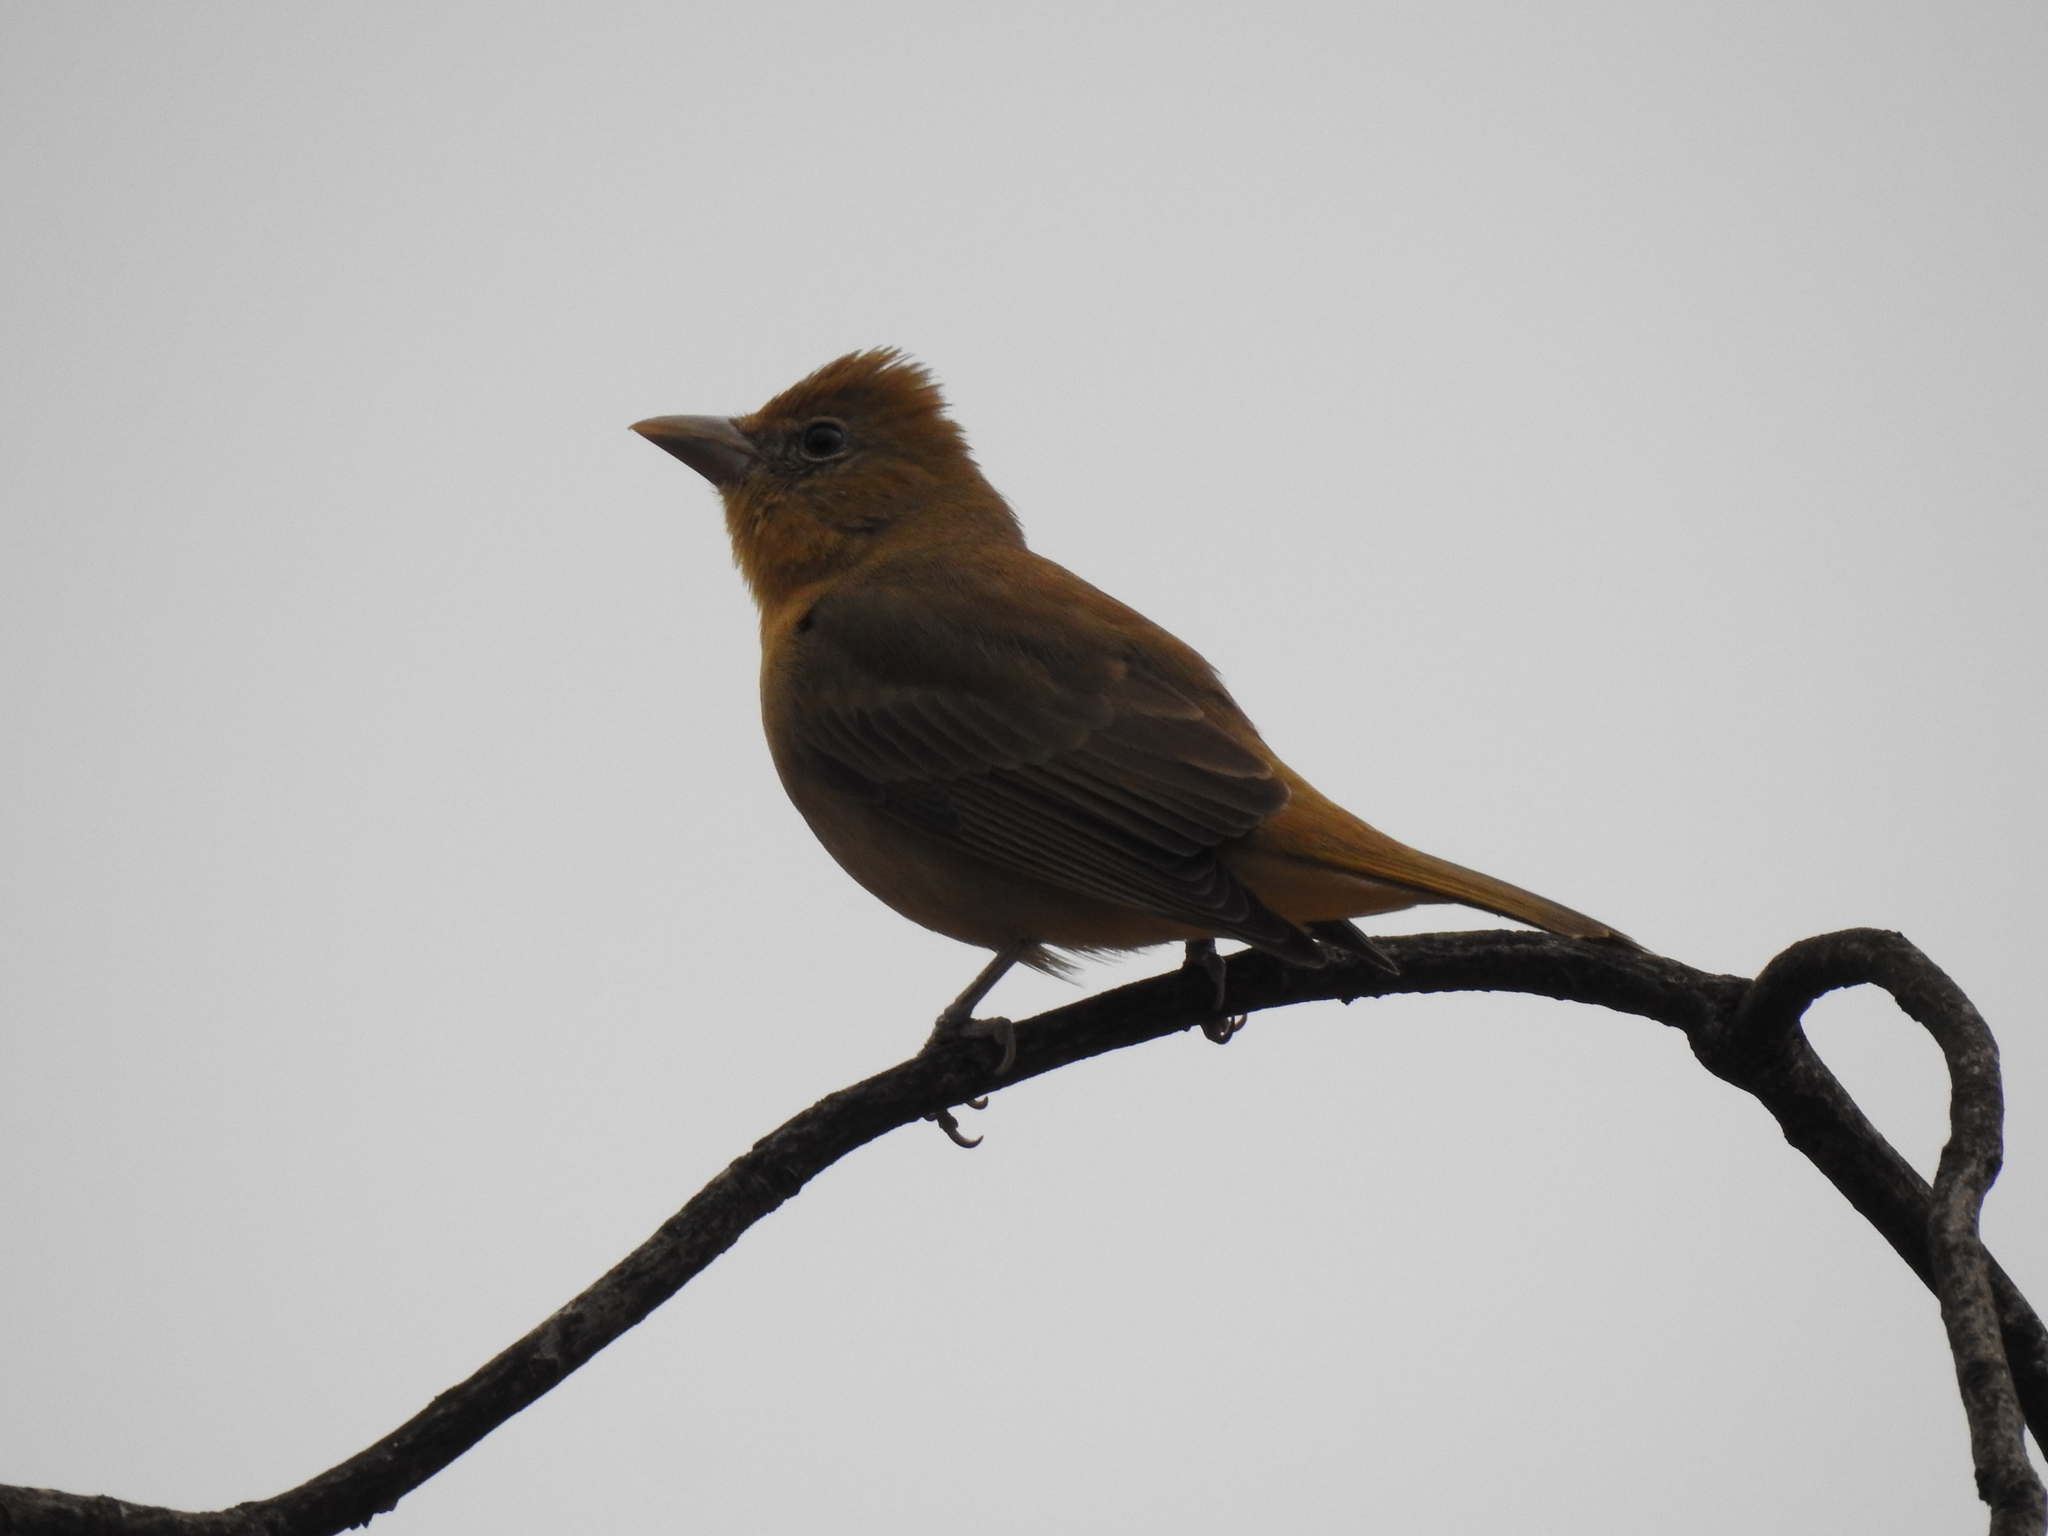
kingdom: Animalia
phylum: Chordata
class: Aves
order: Passeriformes
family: Cardinalidae
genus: Piranga
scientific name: Piranga rubra
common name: Summer tanager
